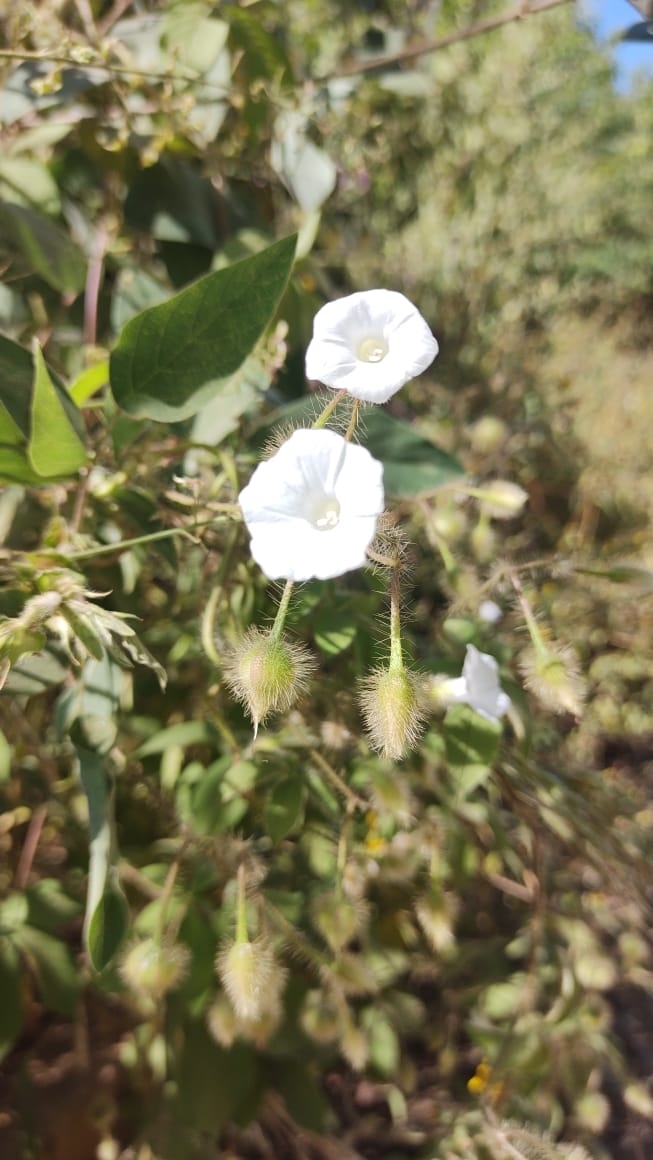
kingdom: Plantae
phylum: Tracheophyta
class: Magnoliopsida
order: Solanales
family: Convolvulaceae
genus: Distimake
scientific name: Distimake aegyptius
